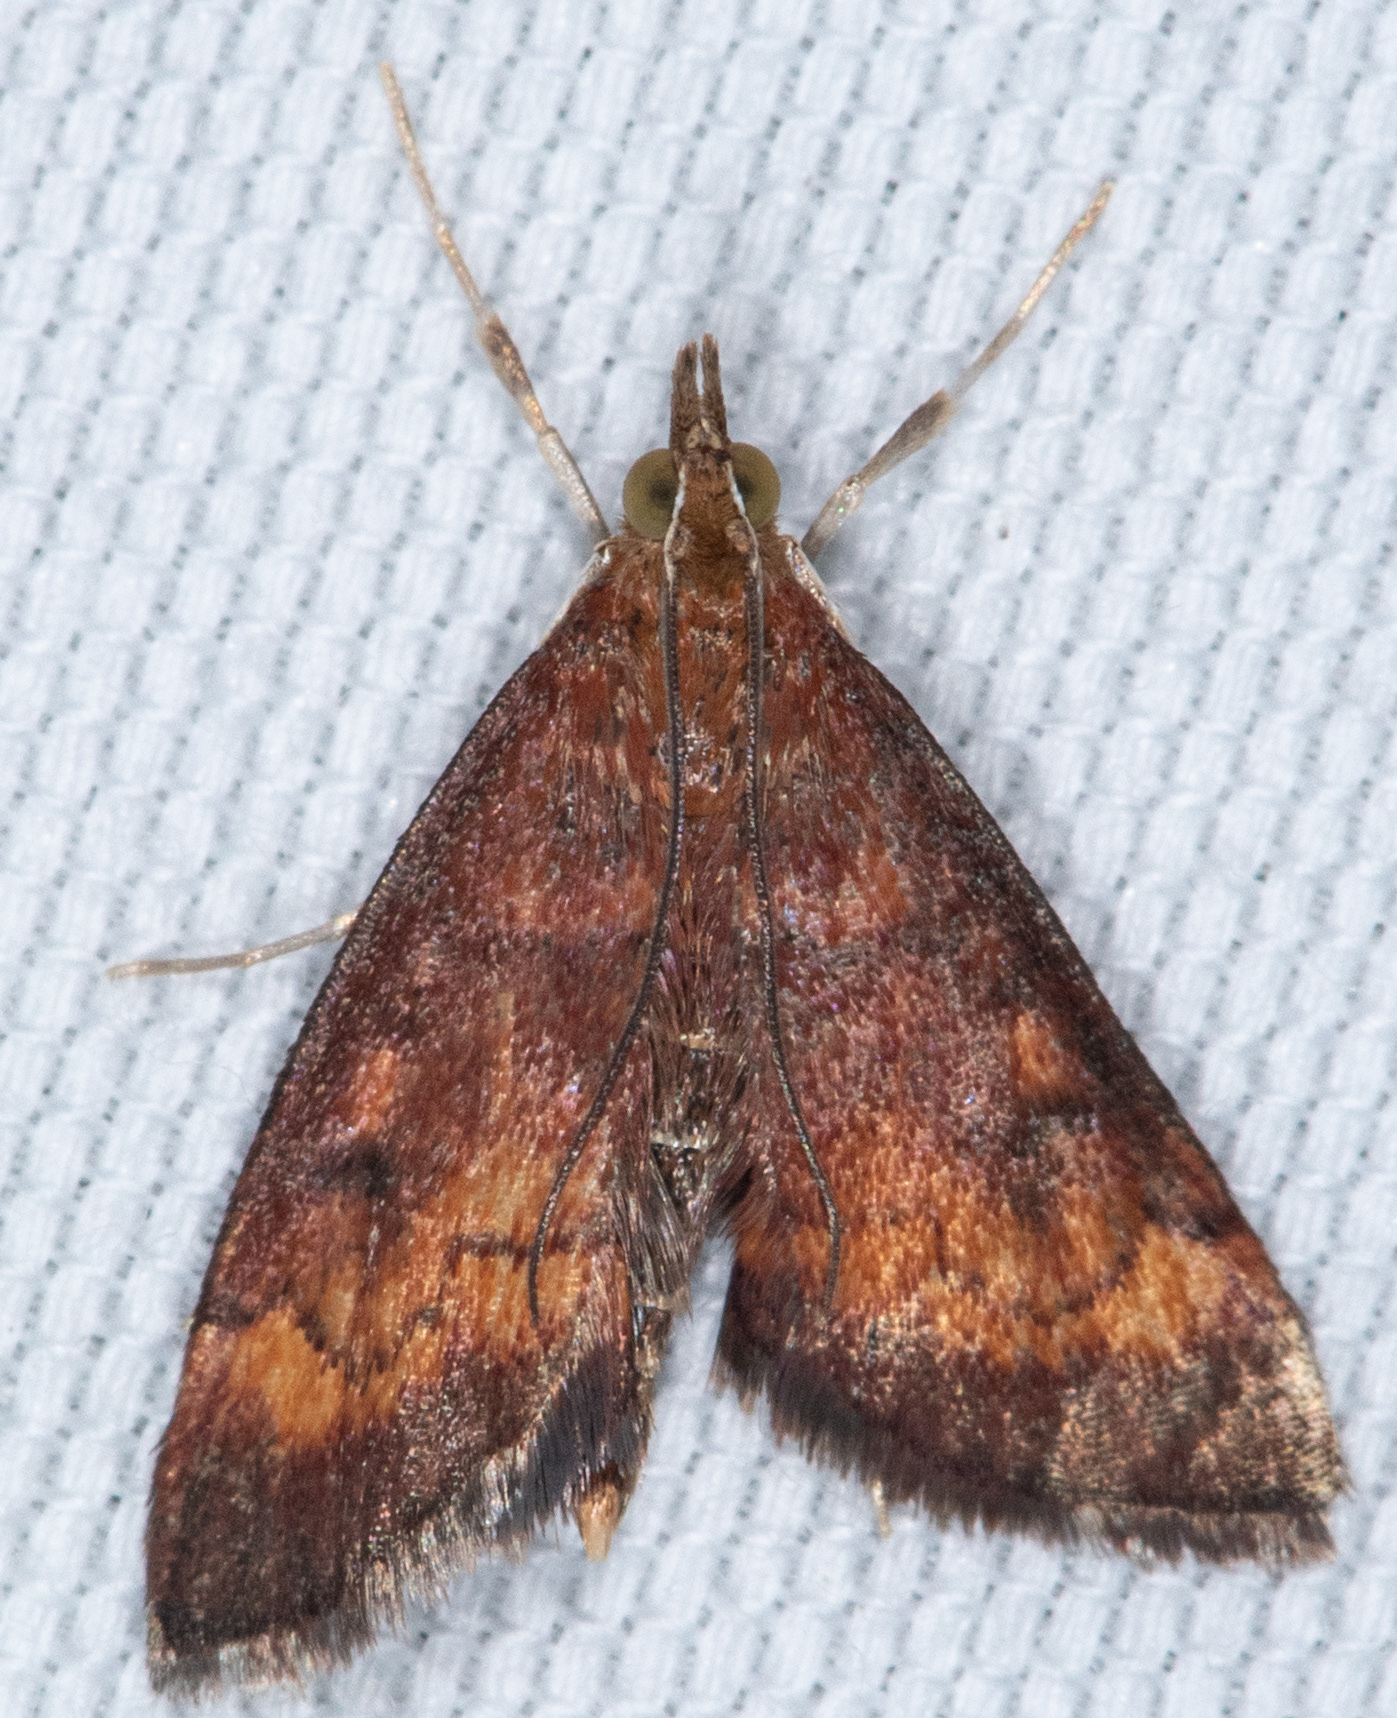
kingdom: Animalia
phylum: Arthropoda
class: Insecta
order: Lepidoptera
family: Crambidae
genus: Pyrausta
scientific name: Pyrausta californicalis
